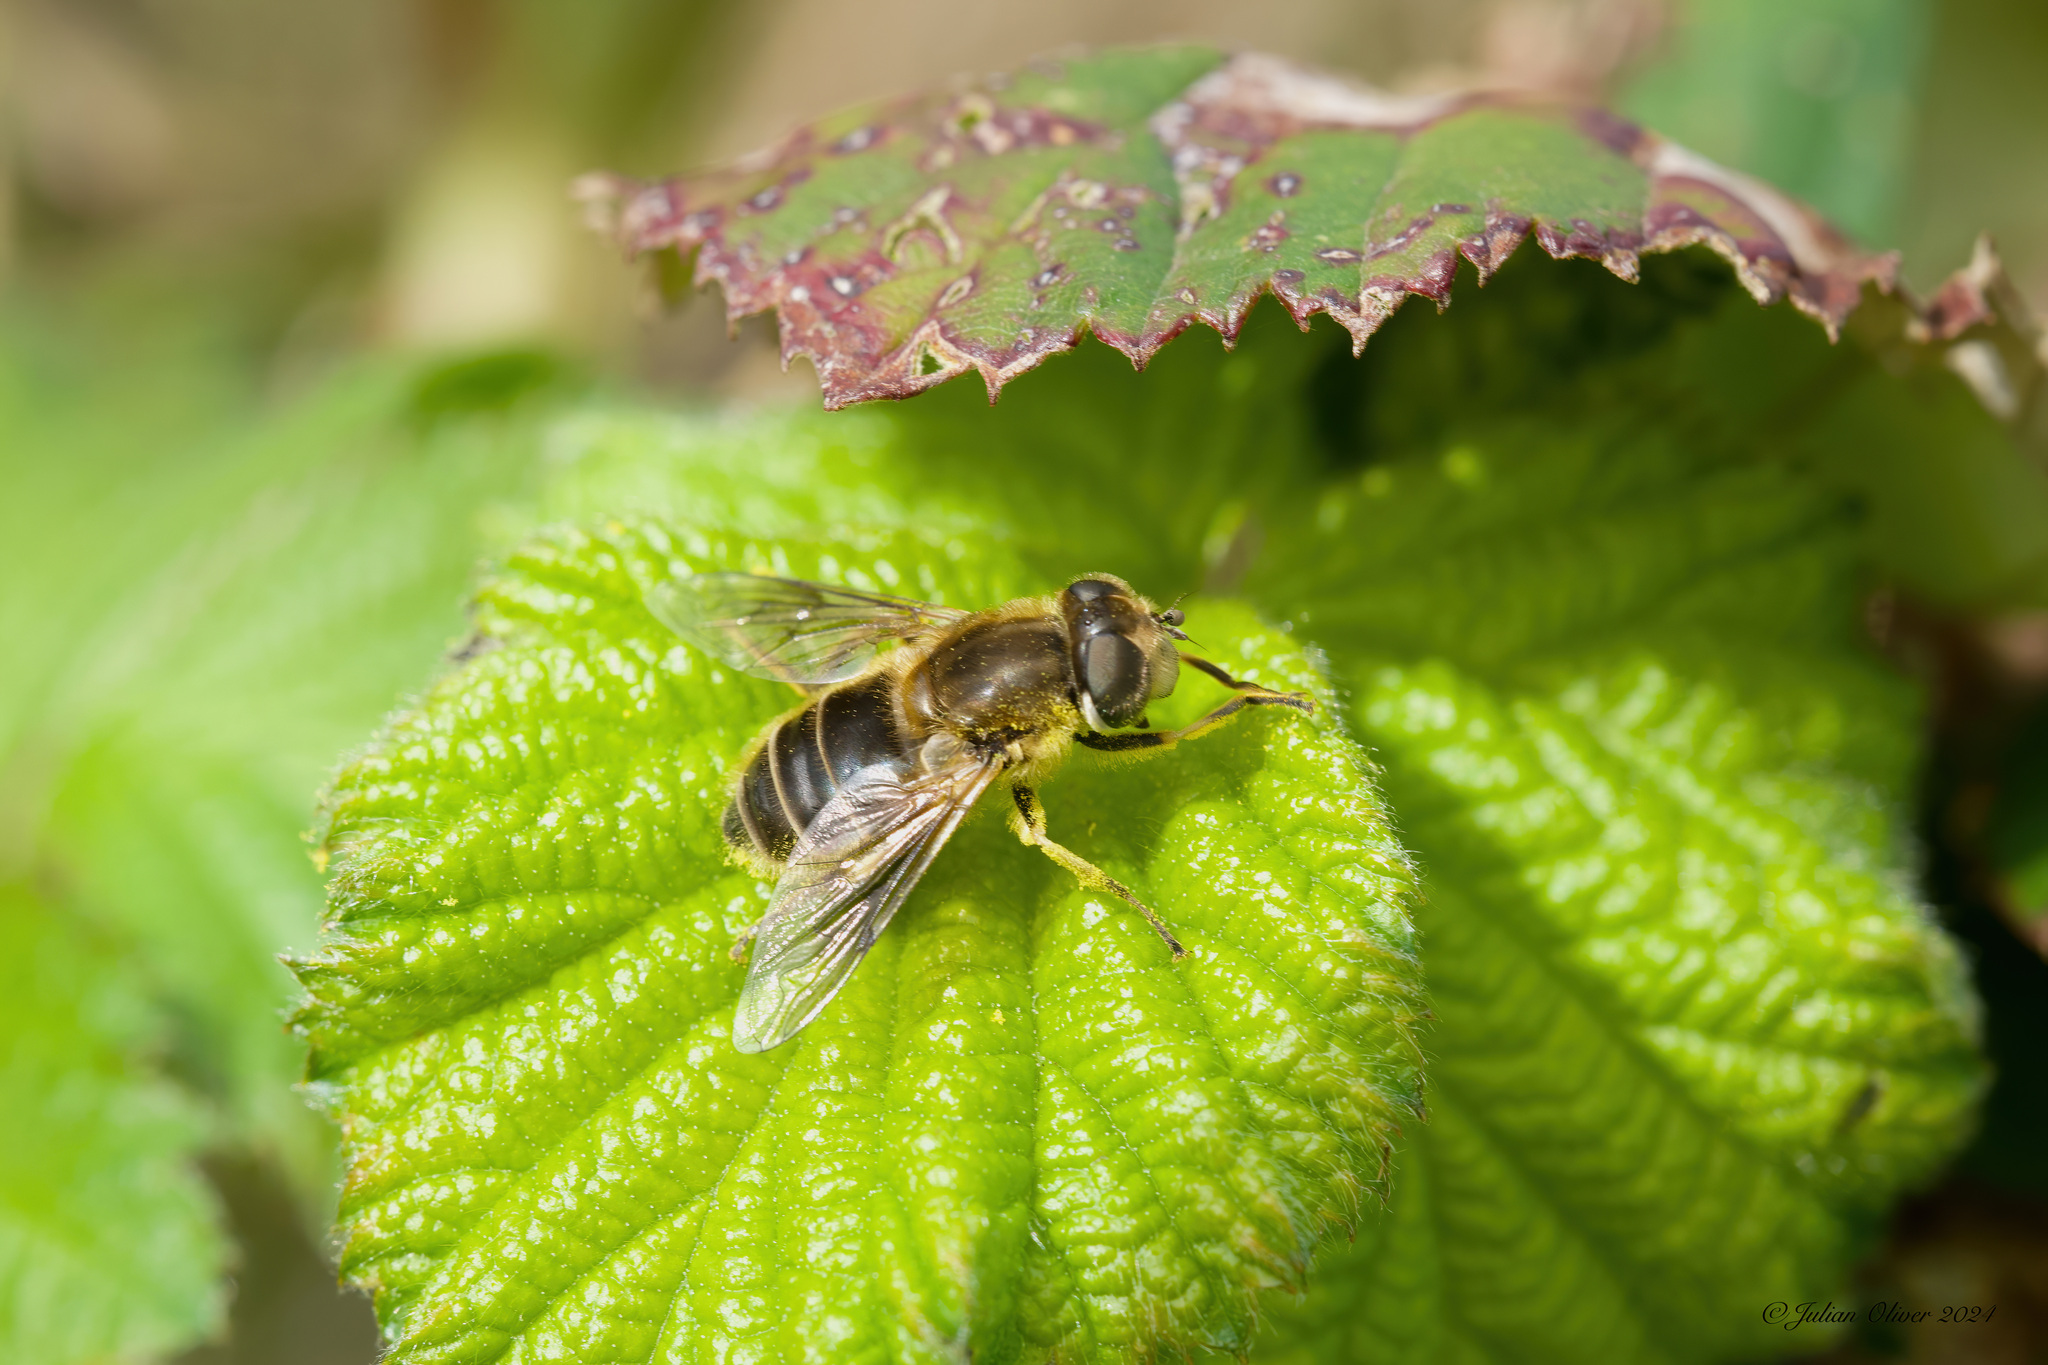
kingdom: Animalia
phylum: Arthropoda
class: Insecta
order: Diptera
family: Syrphidae
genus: Eristalis
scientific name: Eristalis arbustorum
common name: Hover fly
